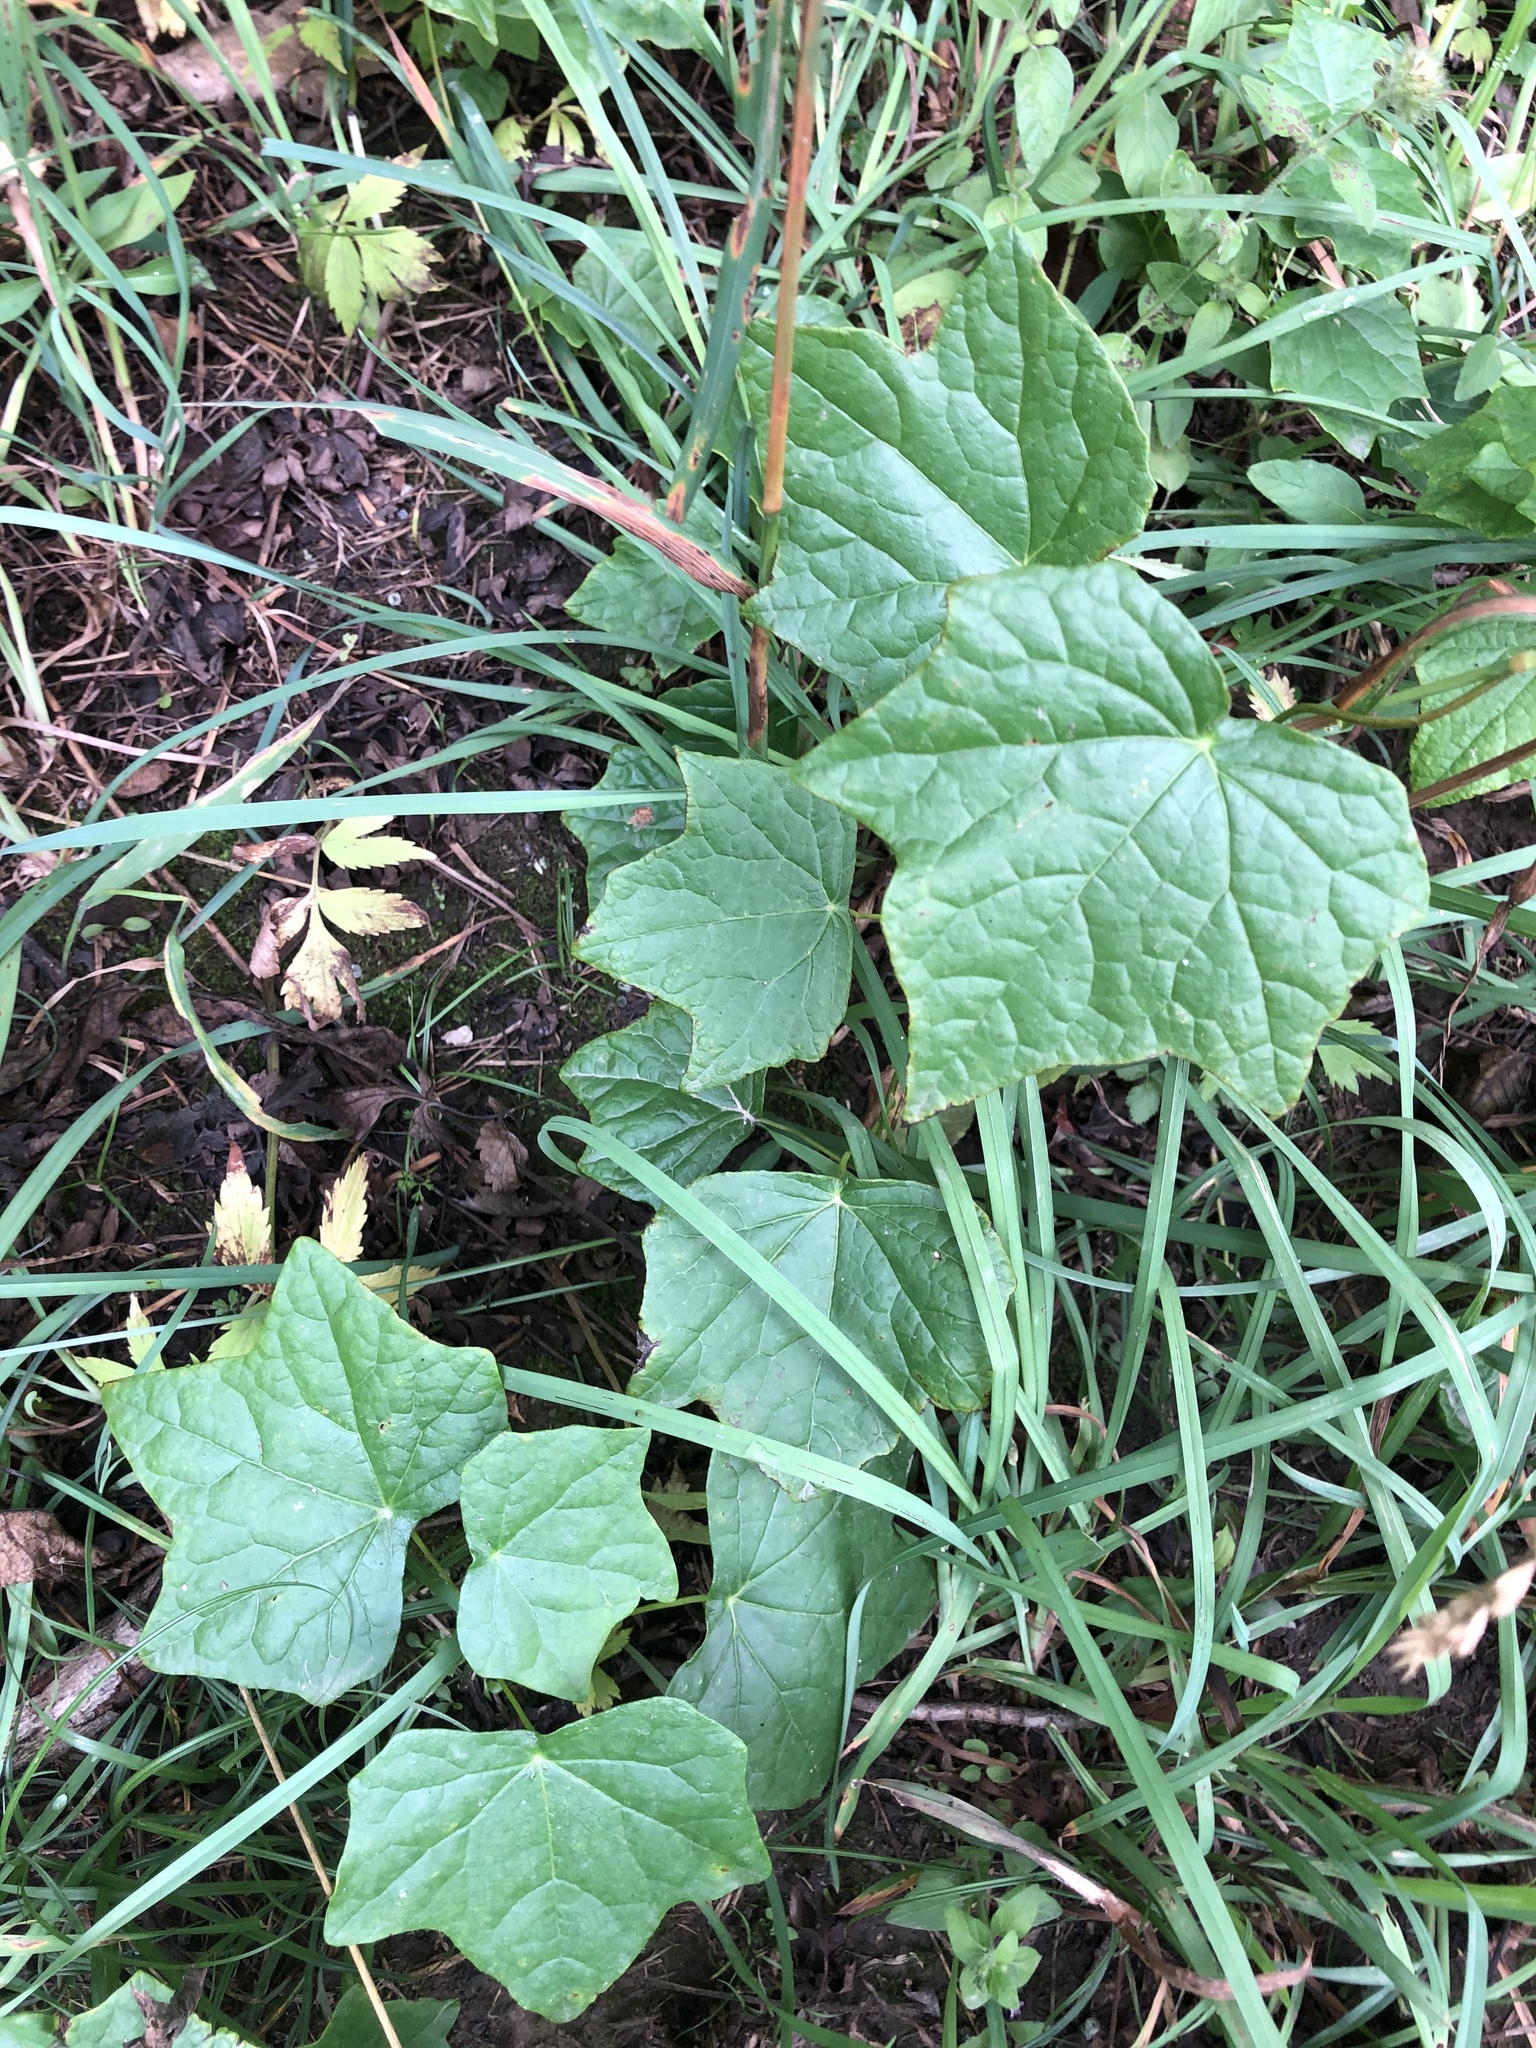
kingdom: Plantae
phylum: Tracheophyta
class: Magnoliopsida
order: Ranunculales
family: Menispermaceae
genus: Menispermum
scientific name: Menispermum canadense
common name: Moonseed
